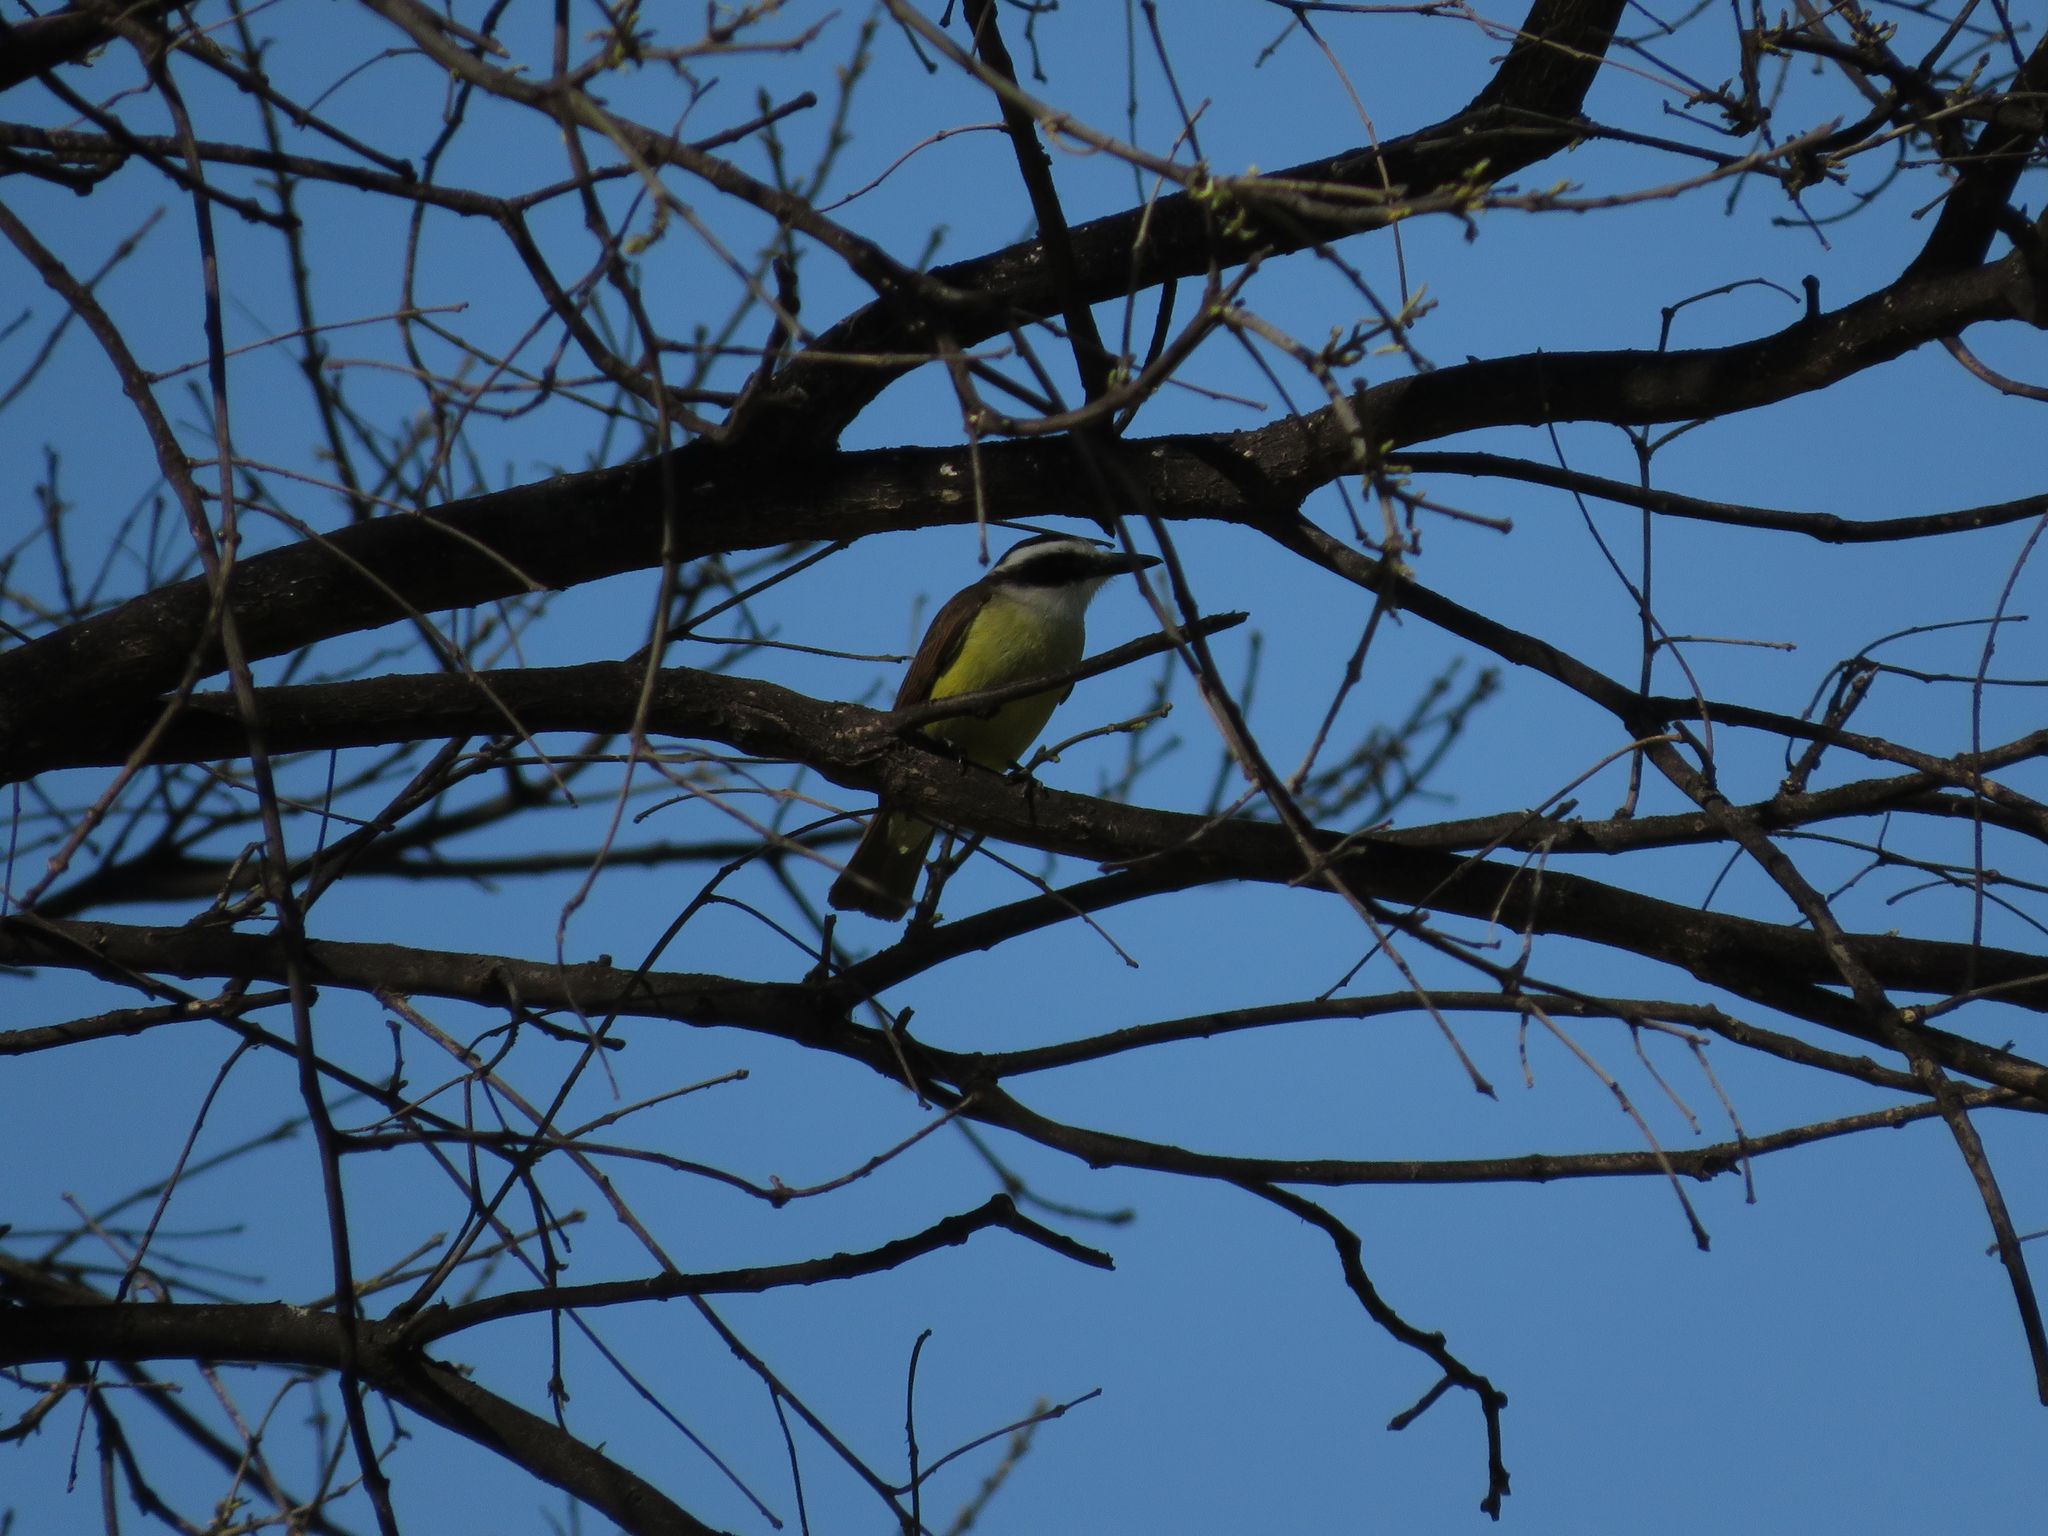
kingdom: Animalia
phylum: Chordata
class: Aves
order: Passeriformes
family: Tyrannidae
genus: Pitangus
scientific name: Pitangus sulphuratus
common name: Great kiskadee
